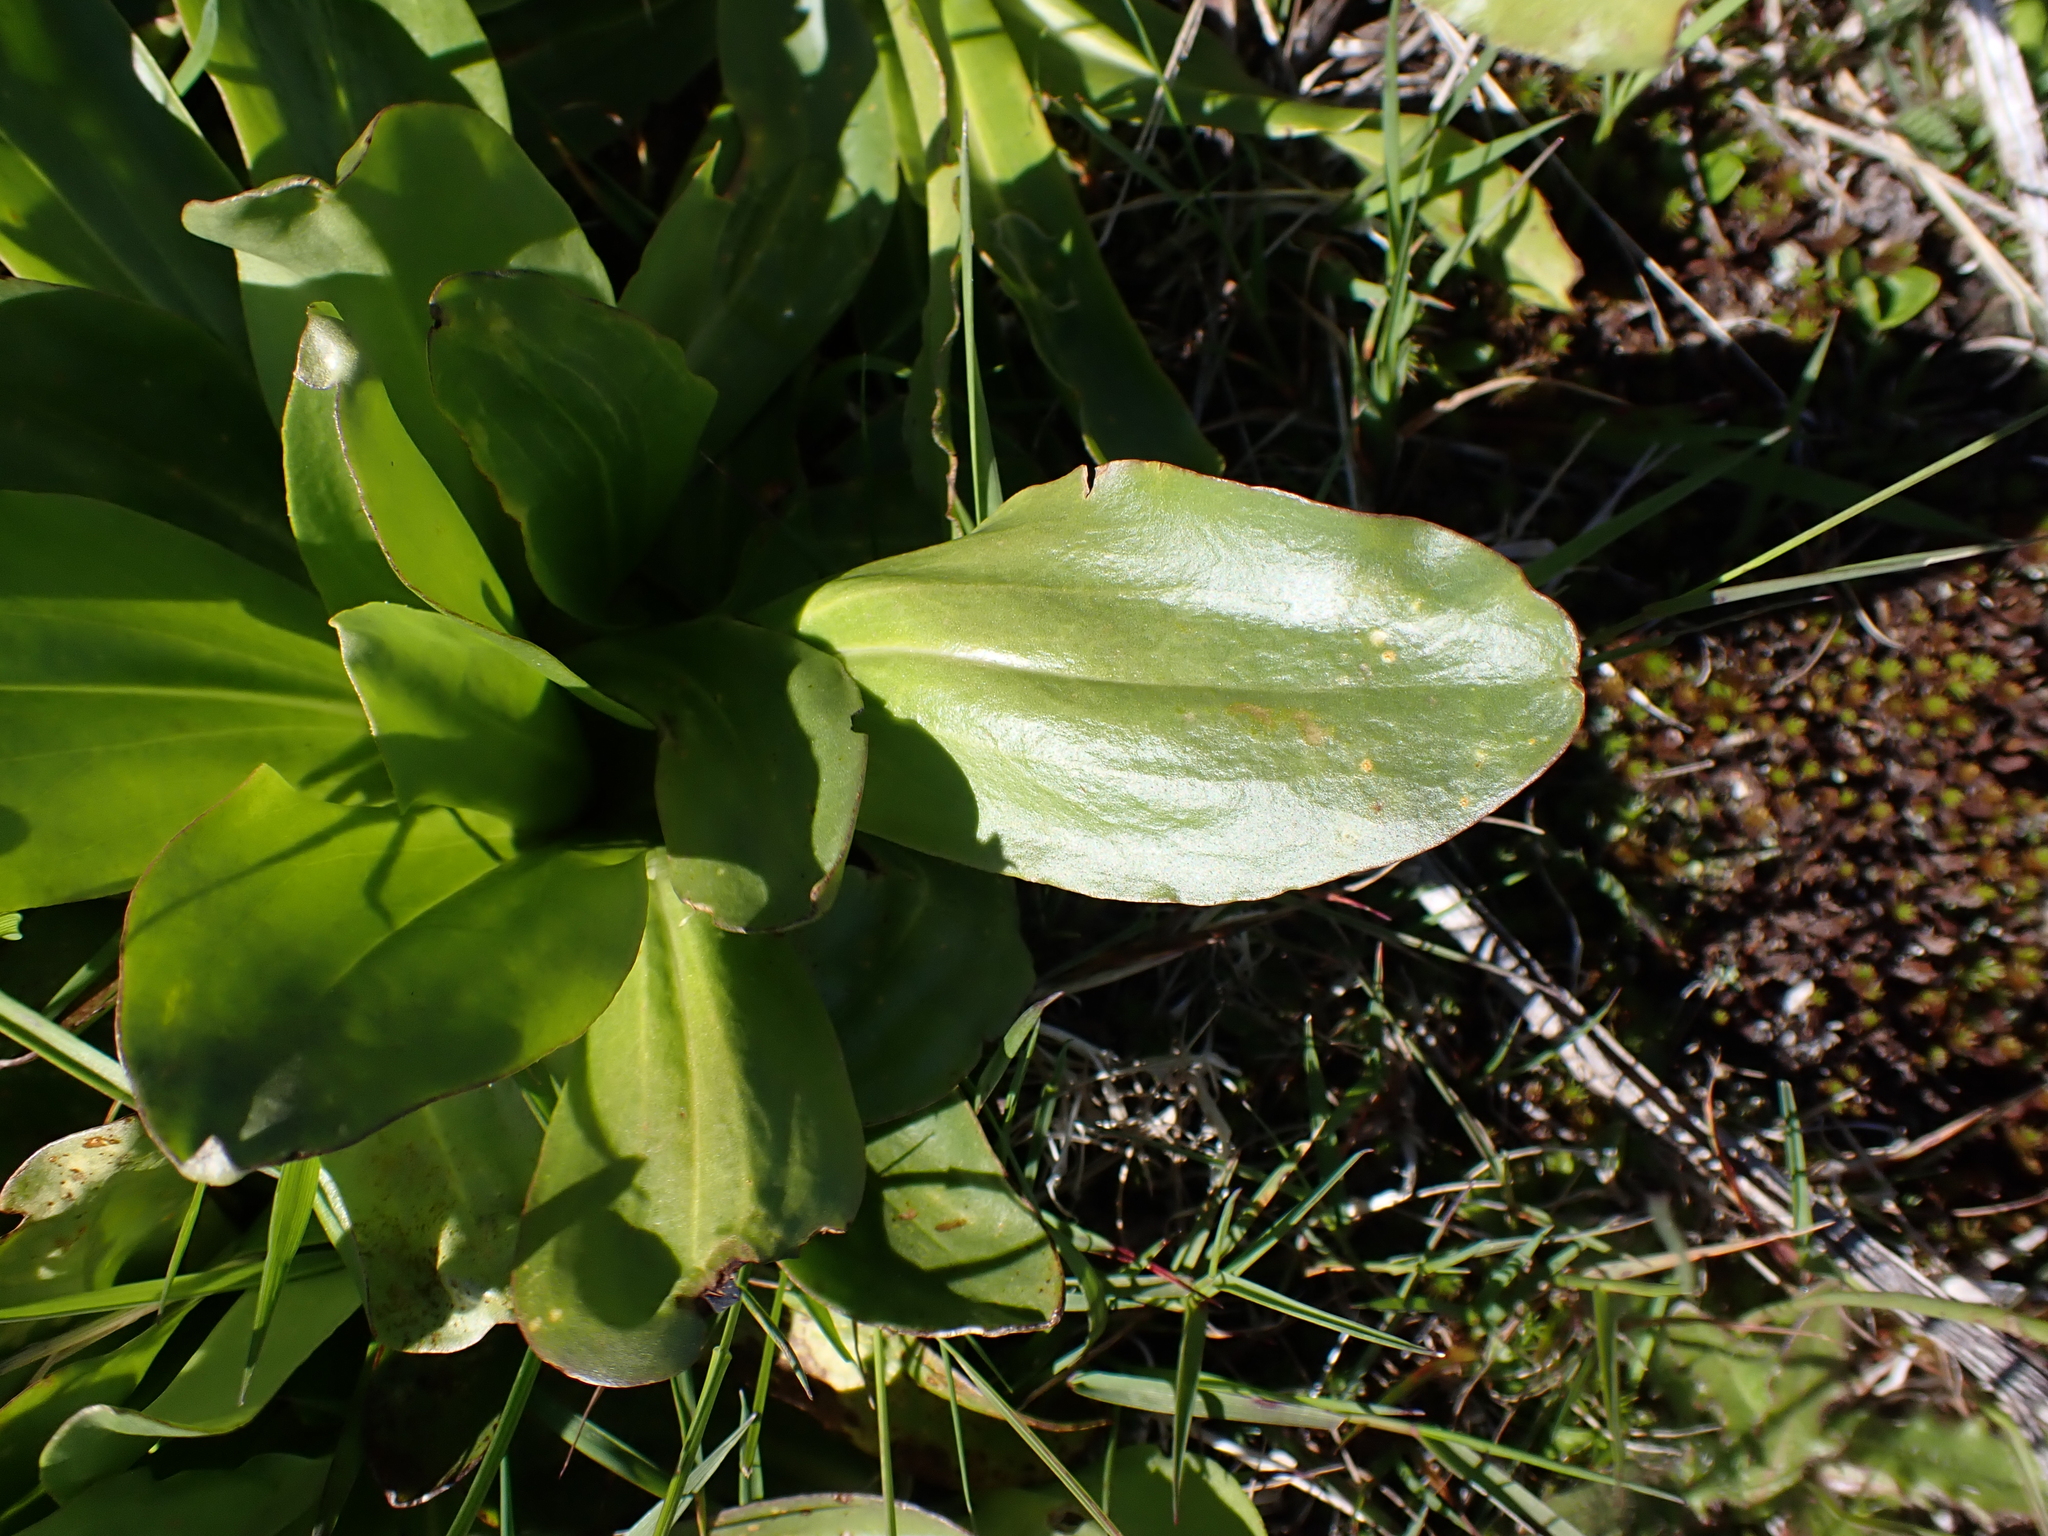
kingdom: Plantae
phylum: Tracheophyta
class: Magnoliopsida
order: Asterales
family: Asteraceae
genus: Podolepis
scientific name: Podolepis robusta
